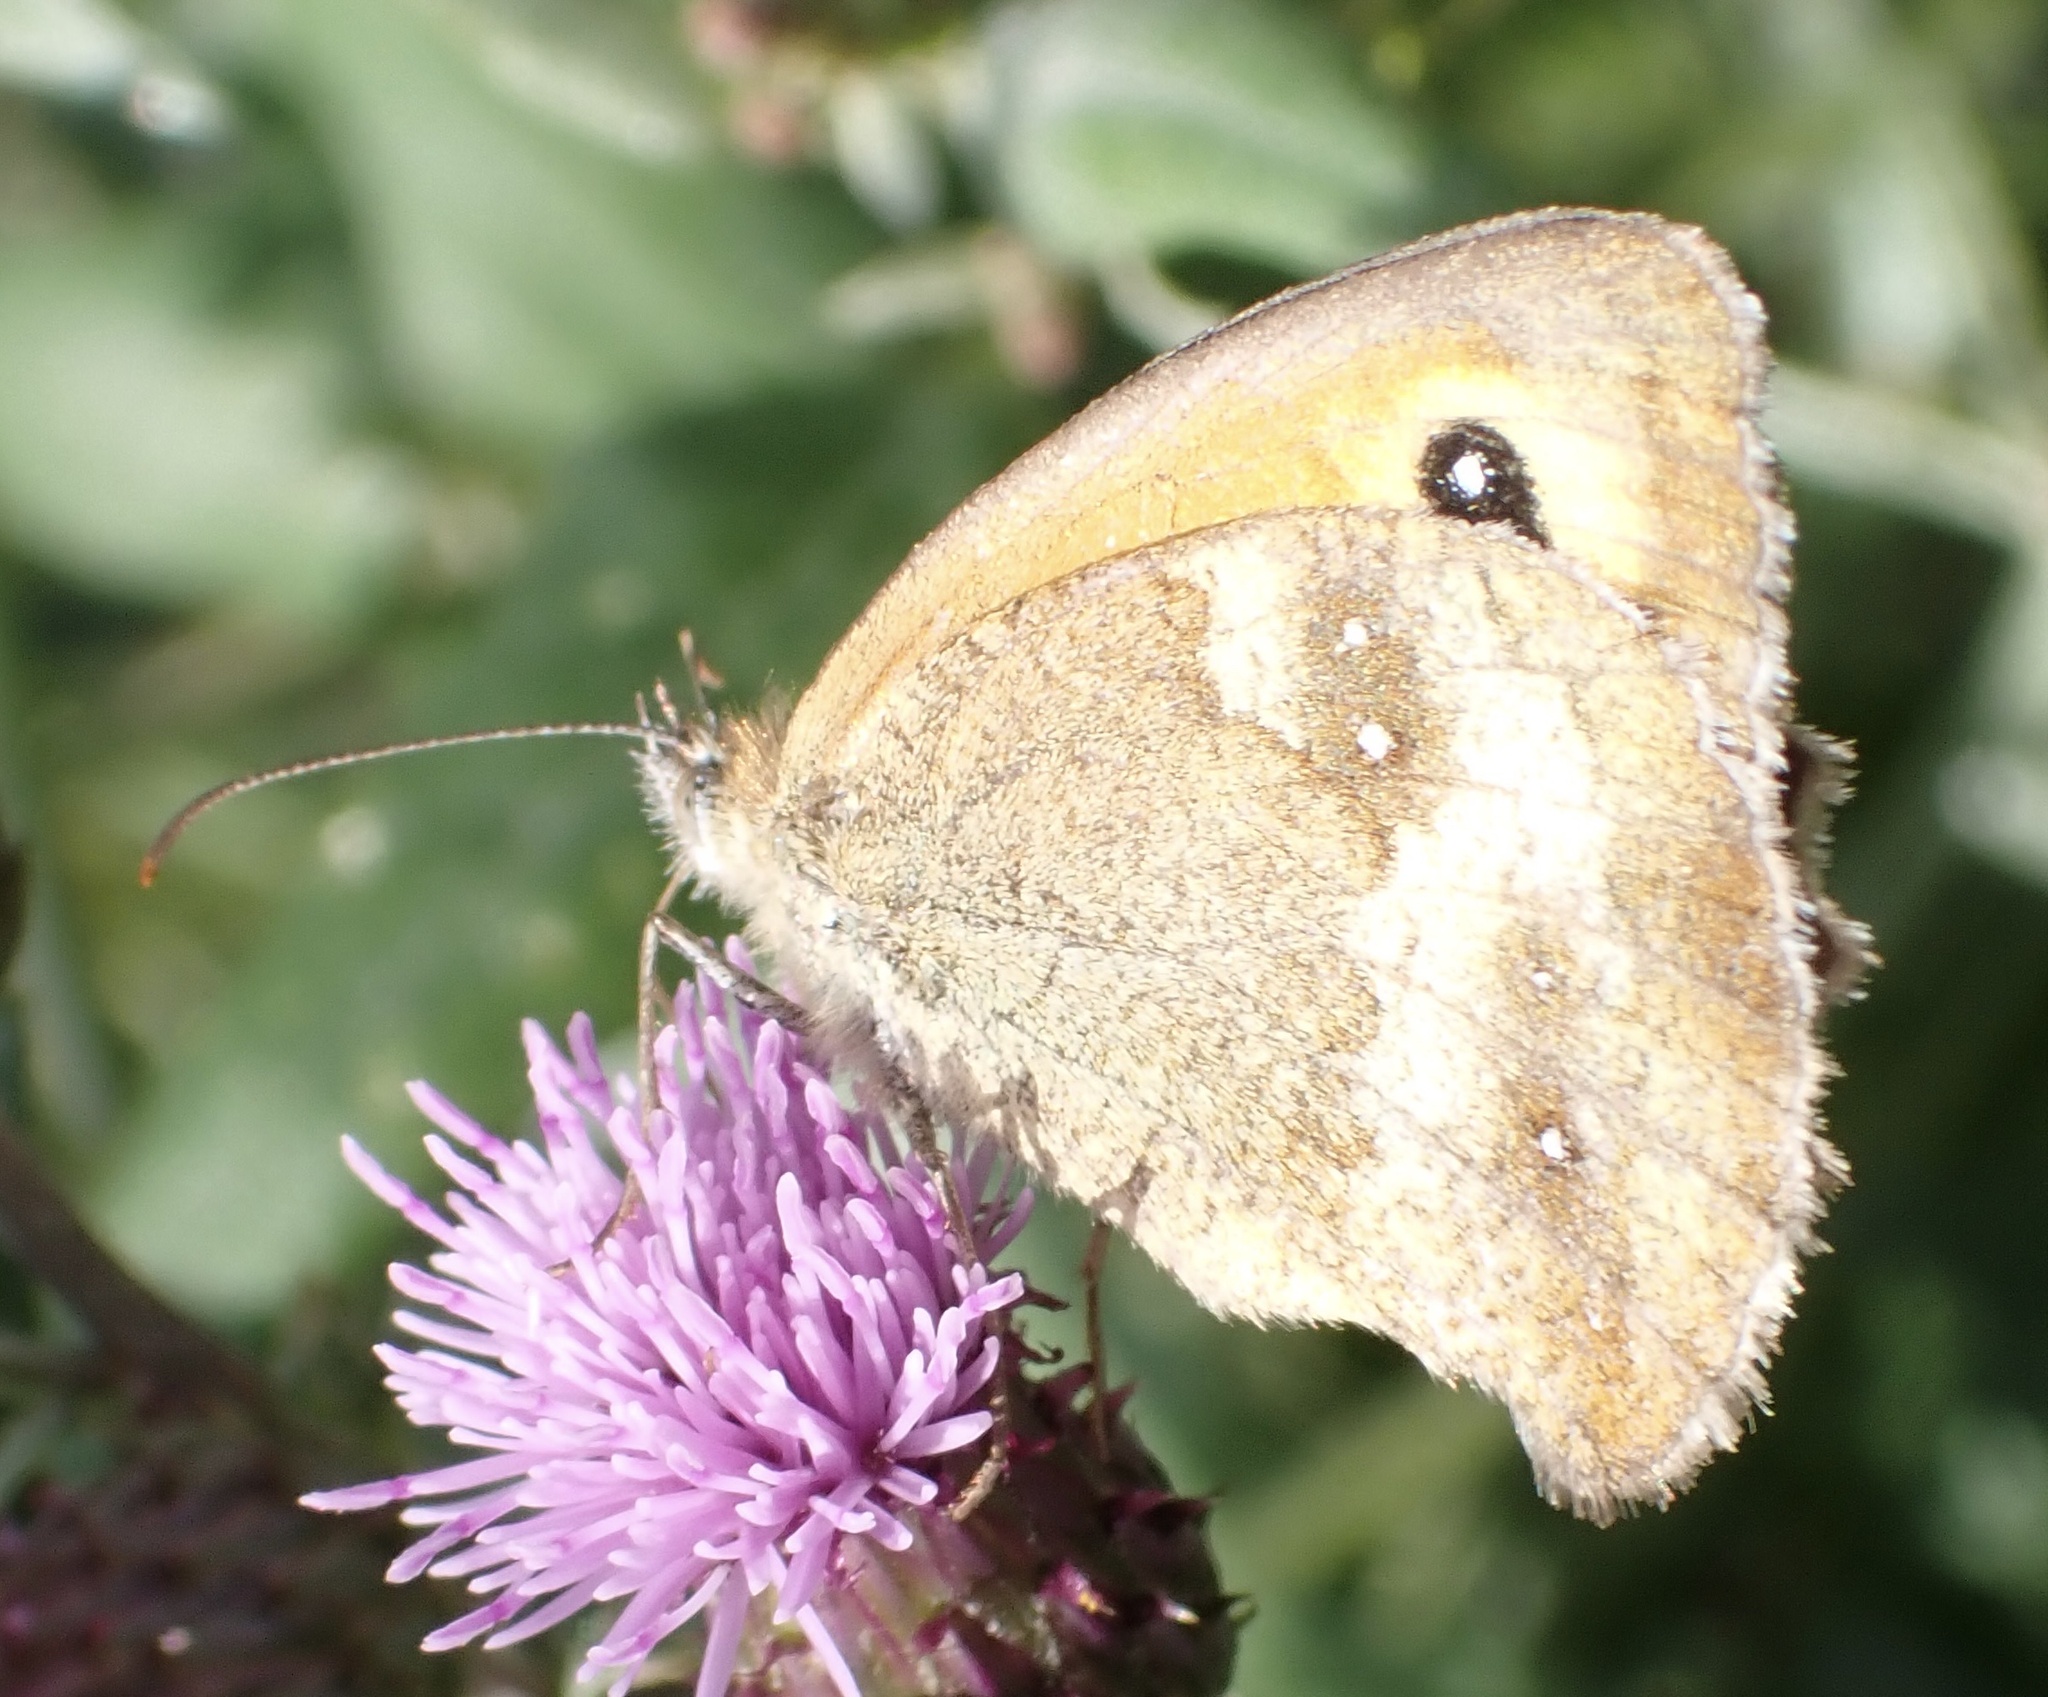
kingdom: Animalia
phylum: Arthropoda
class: Insecta
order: Lepidoptera
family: Nymphalidae
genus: Pyronia
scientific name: Pyronia tithonus
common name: Gatekeeper
